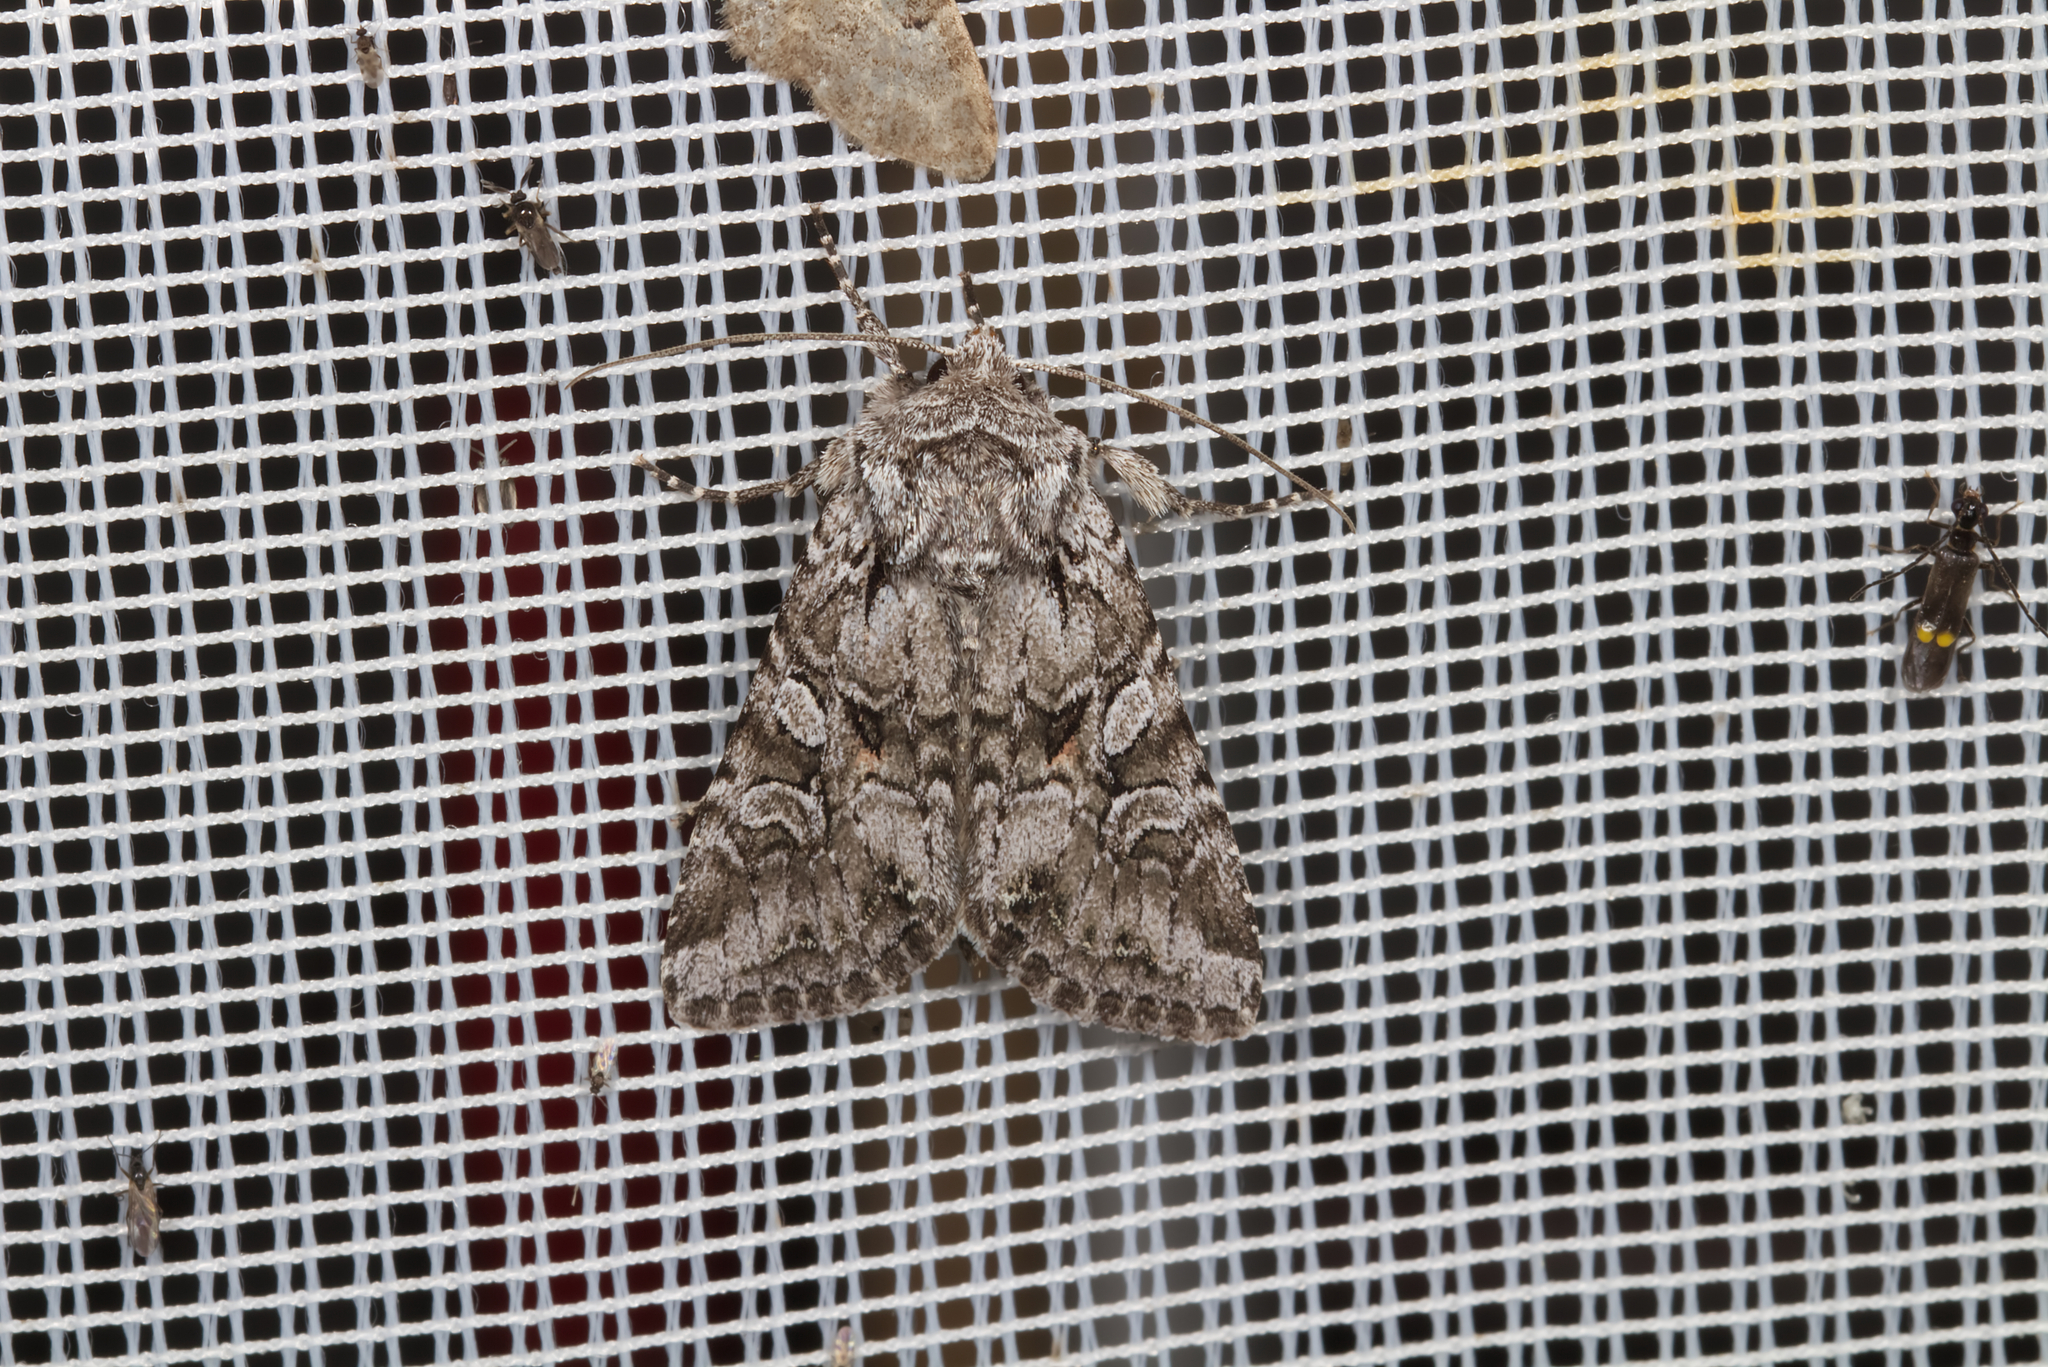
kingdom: Animalia
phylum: Arthropoda
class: Insecta
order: Lepidoptera
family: Noctuidae
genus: Lasionycta
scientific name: Lasionycta proxima
